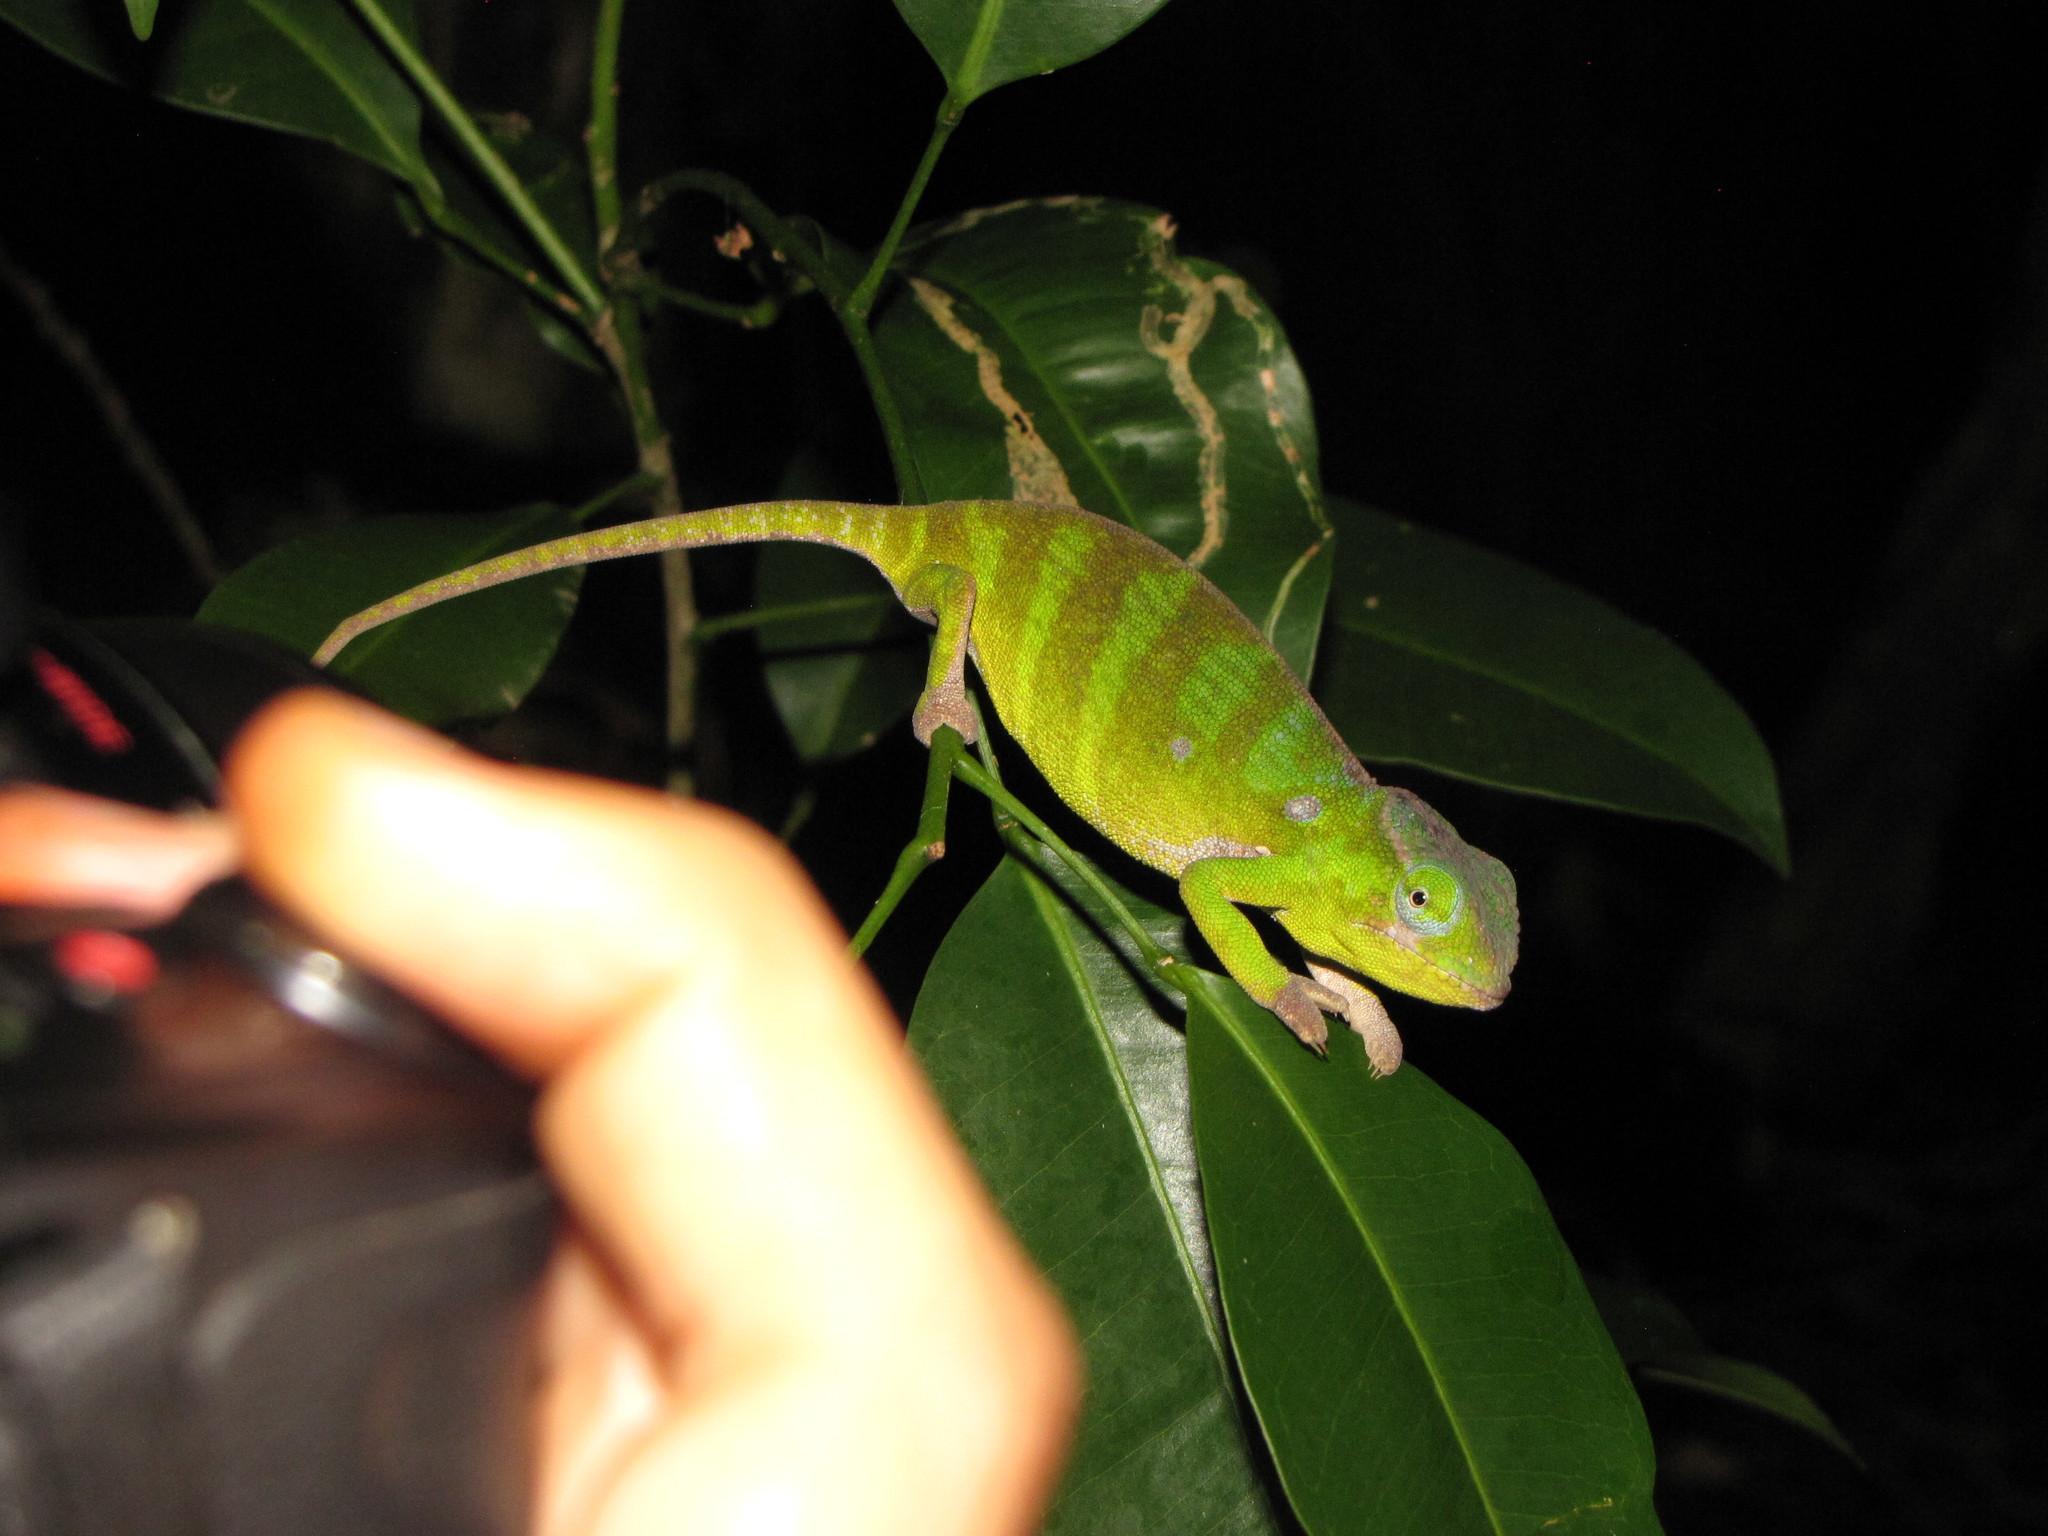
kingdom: Animalia
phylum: Chordata
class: Squamata
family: Chamaeleonidae
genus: Furcifer
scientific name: Furcifer petteri
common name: Petter's chameleon
